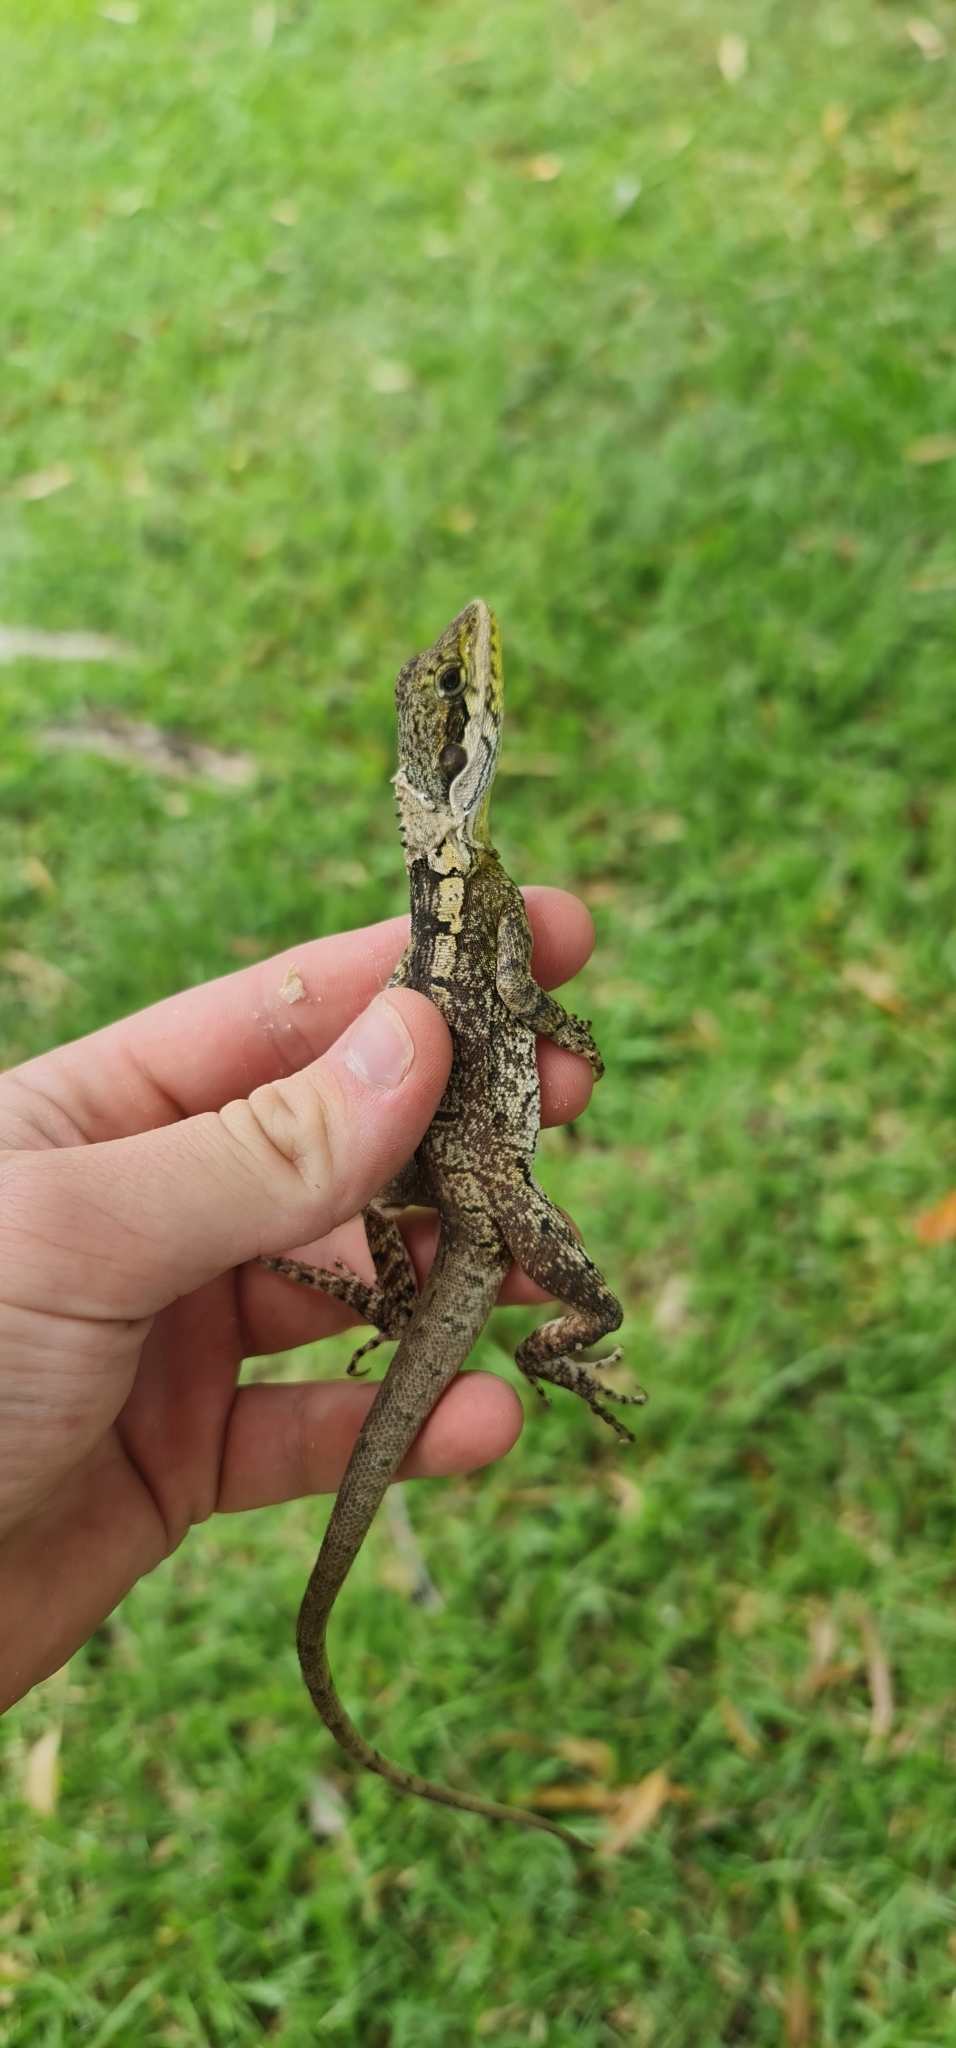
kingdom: Animalia
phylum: Chordata
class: Squamata
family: Agamidae
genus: Tropicagama
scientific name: Tropicagama temporalis
